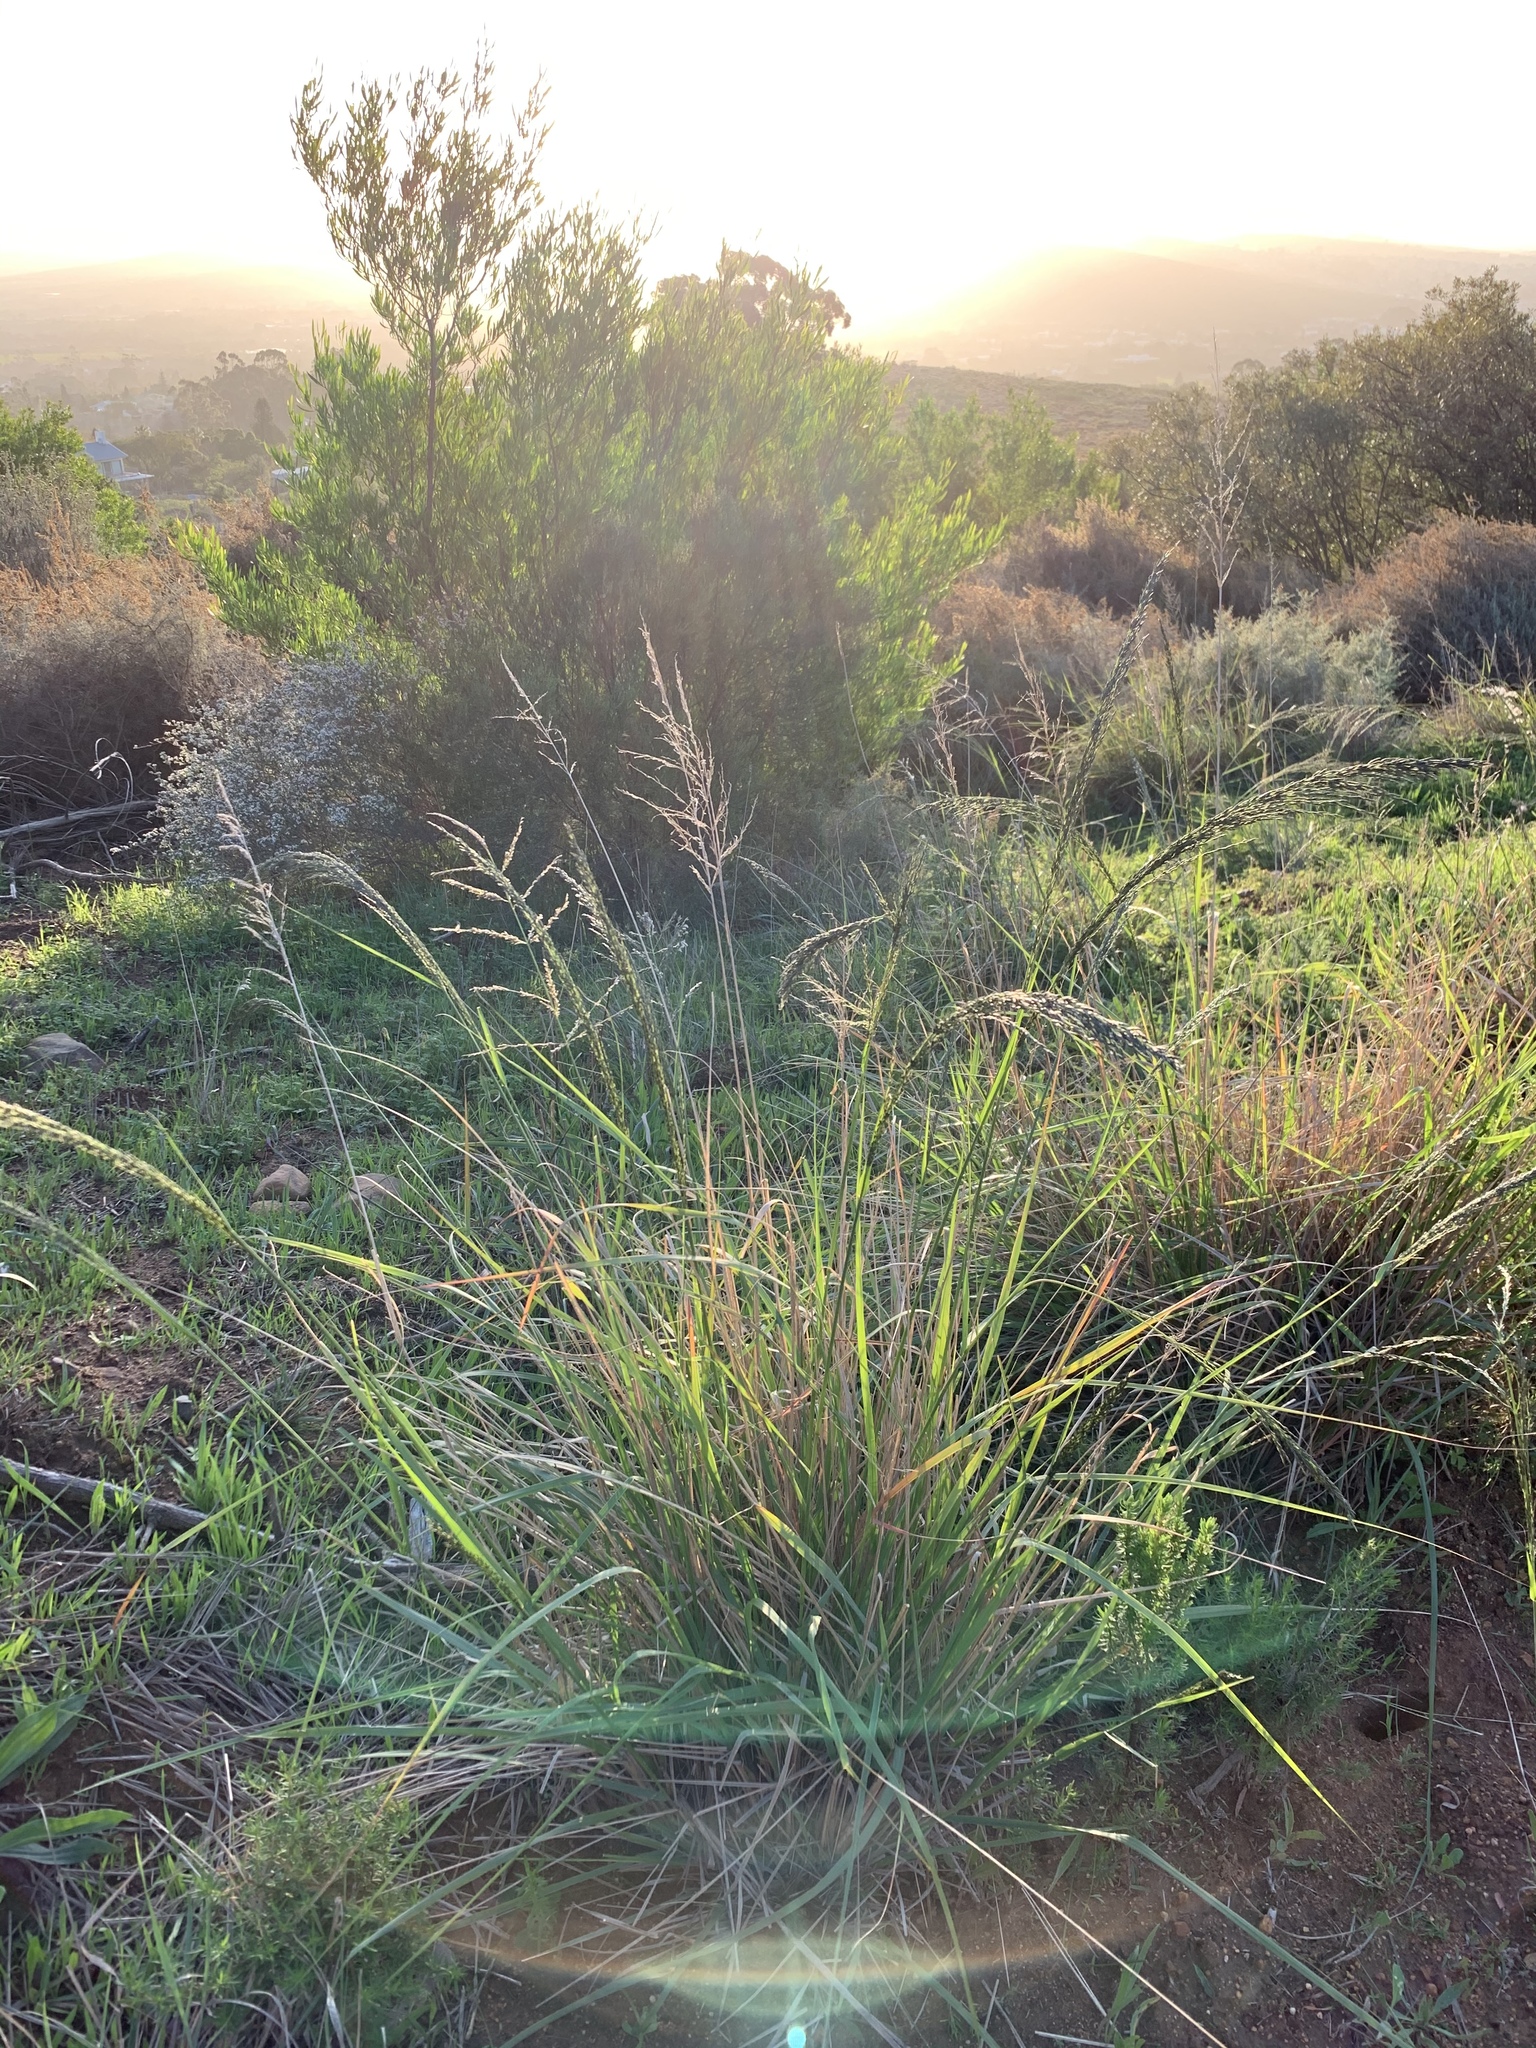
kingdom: Plantae
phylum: Tracheophyta
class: Liliopsida
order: Poales
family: Poaceae
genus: Eragrostis
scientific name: Eragrostis curvula
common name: African love-grass
